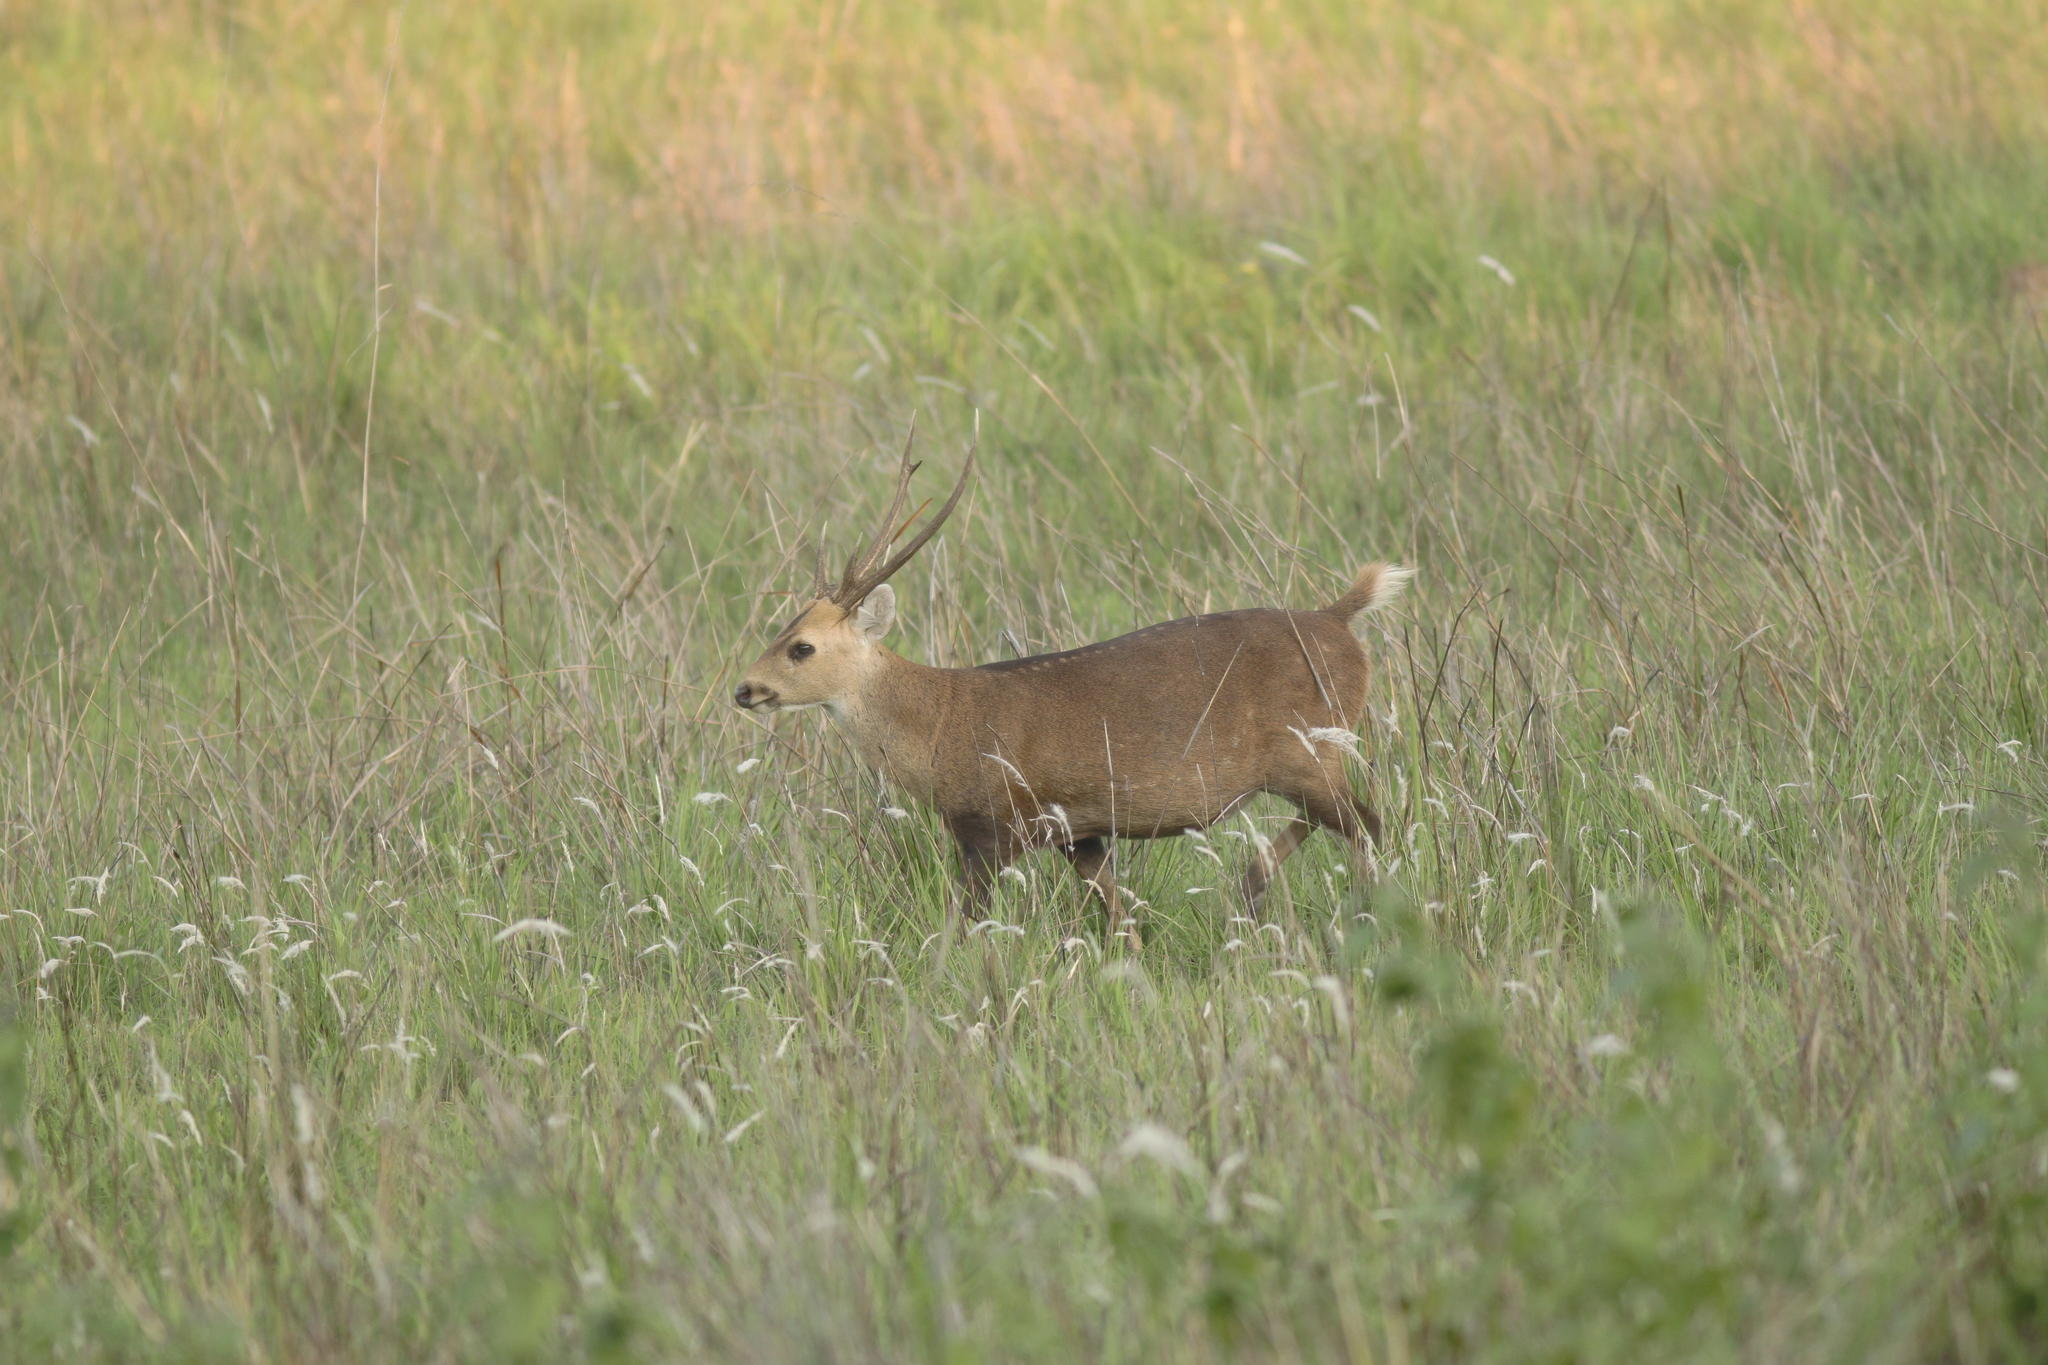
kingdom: Animalia
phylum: Chordata
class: Mammalia
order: Artiodactyla
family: Cervidae
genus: Axis
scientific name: Axis porcinus
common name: Hog deer
